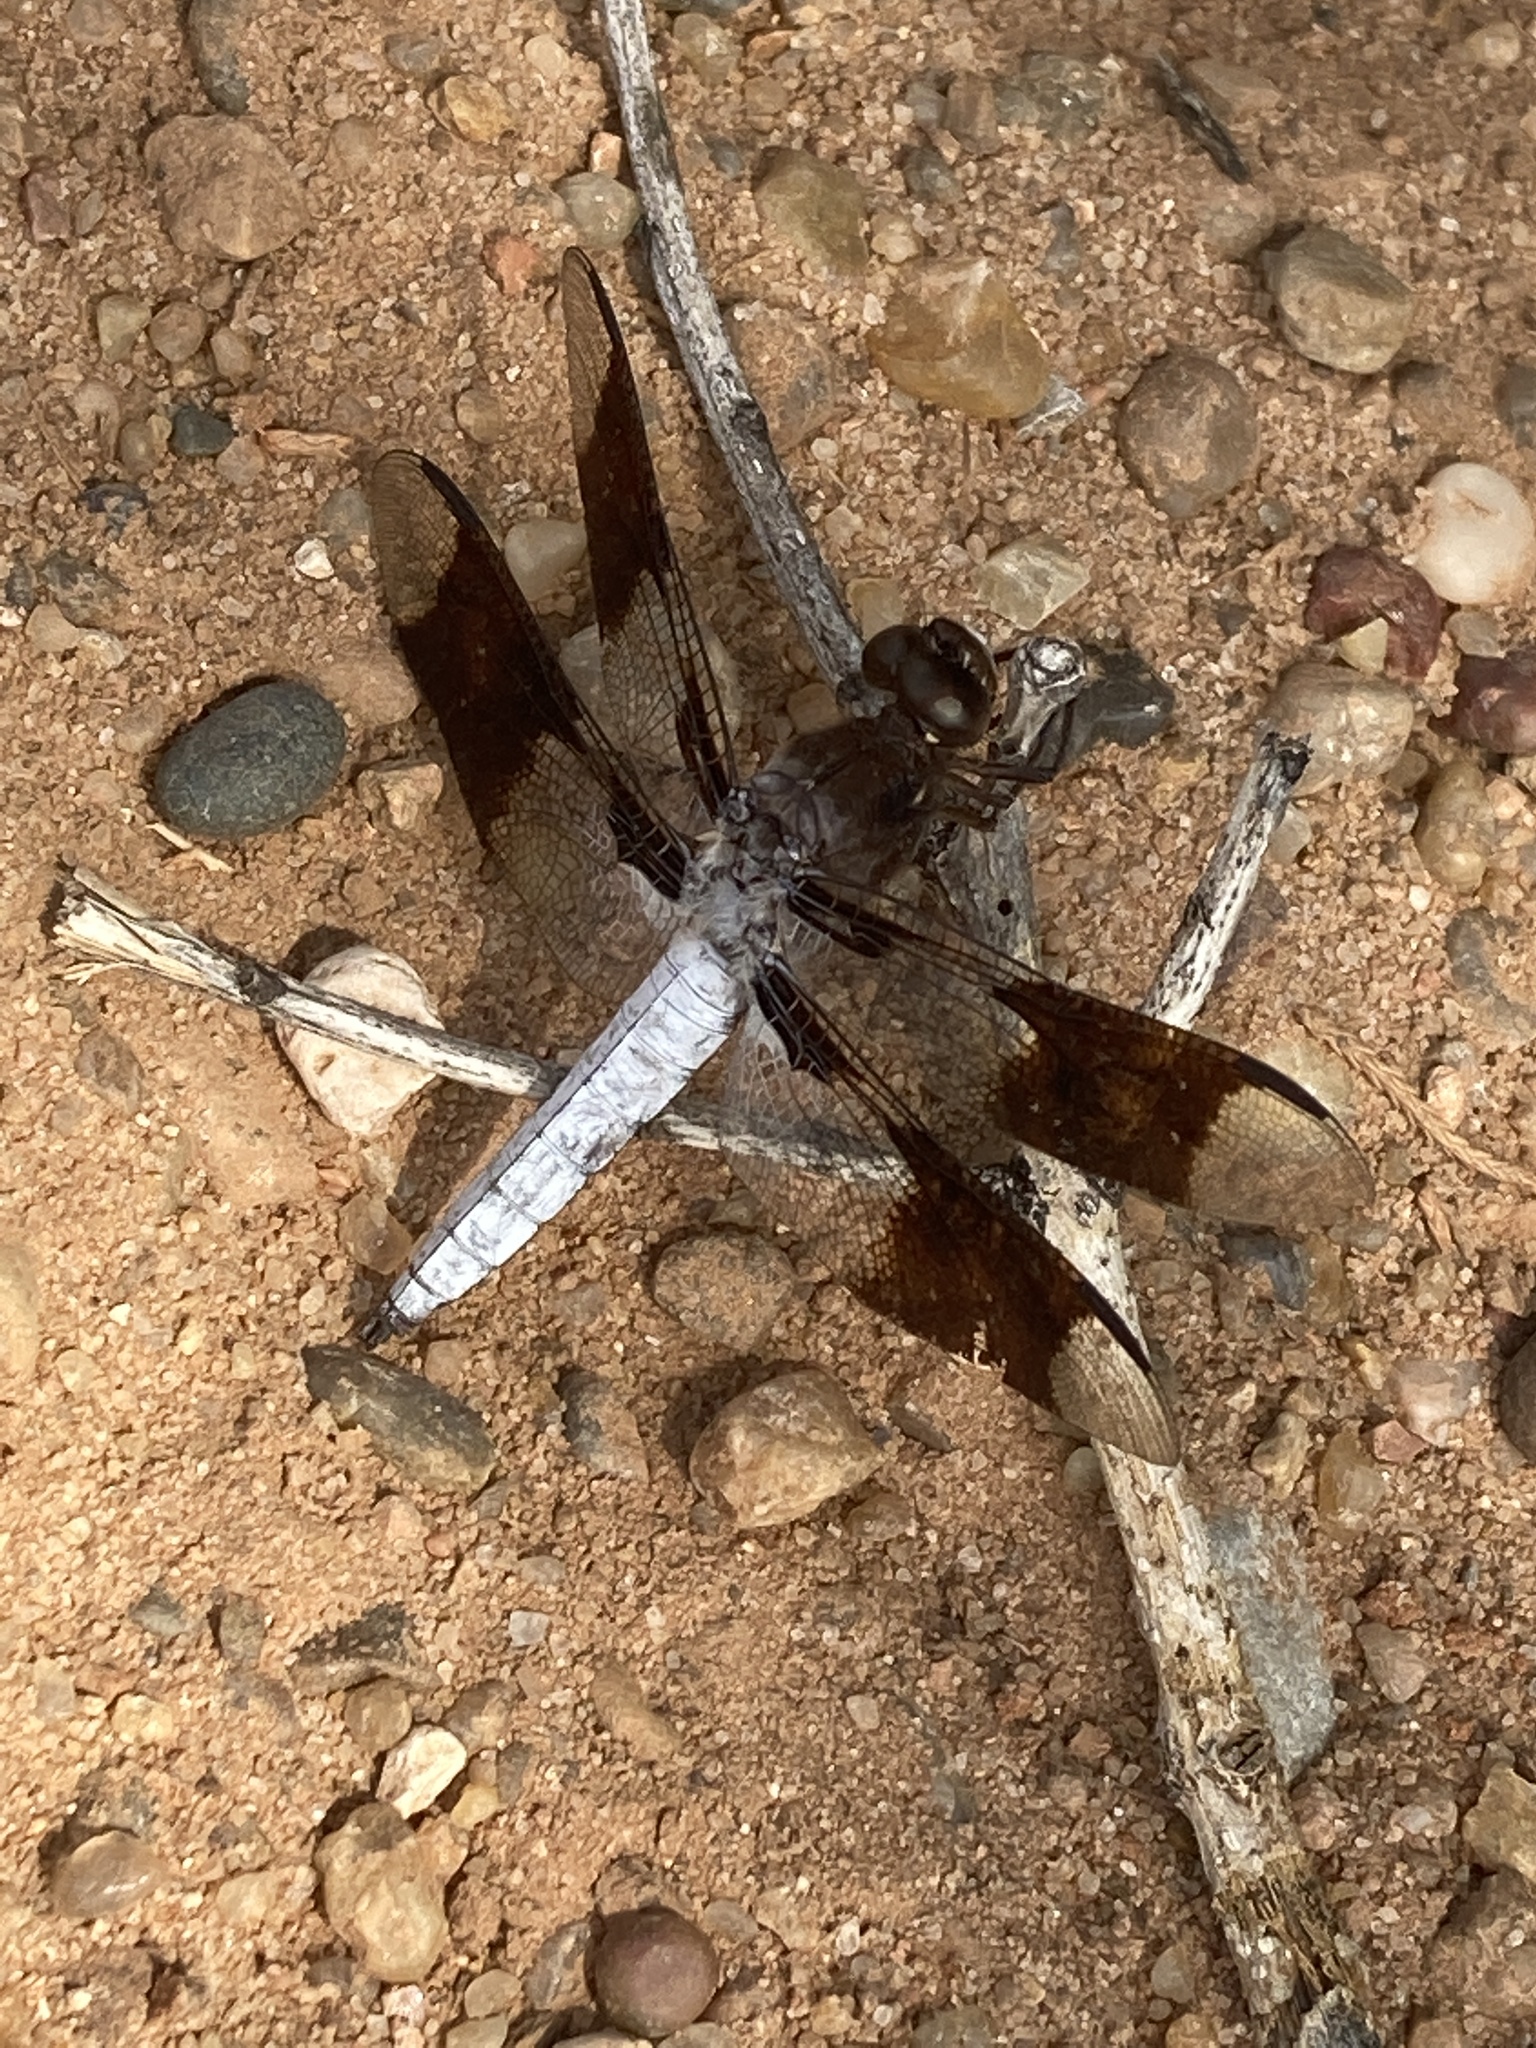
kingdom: Animalia
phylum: Arthropoda
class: Insecta
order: Odonata
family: Libellulidae
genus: Plathemis
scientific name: Plathemis lydia
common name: Common whitetail
